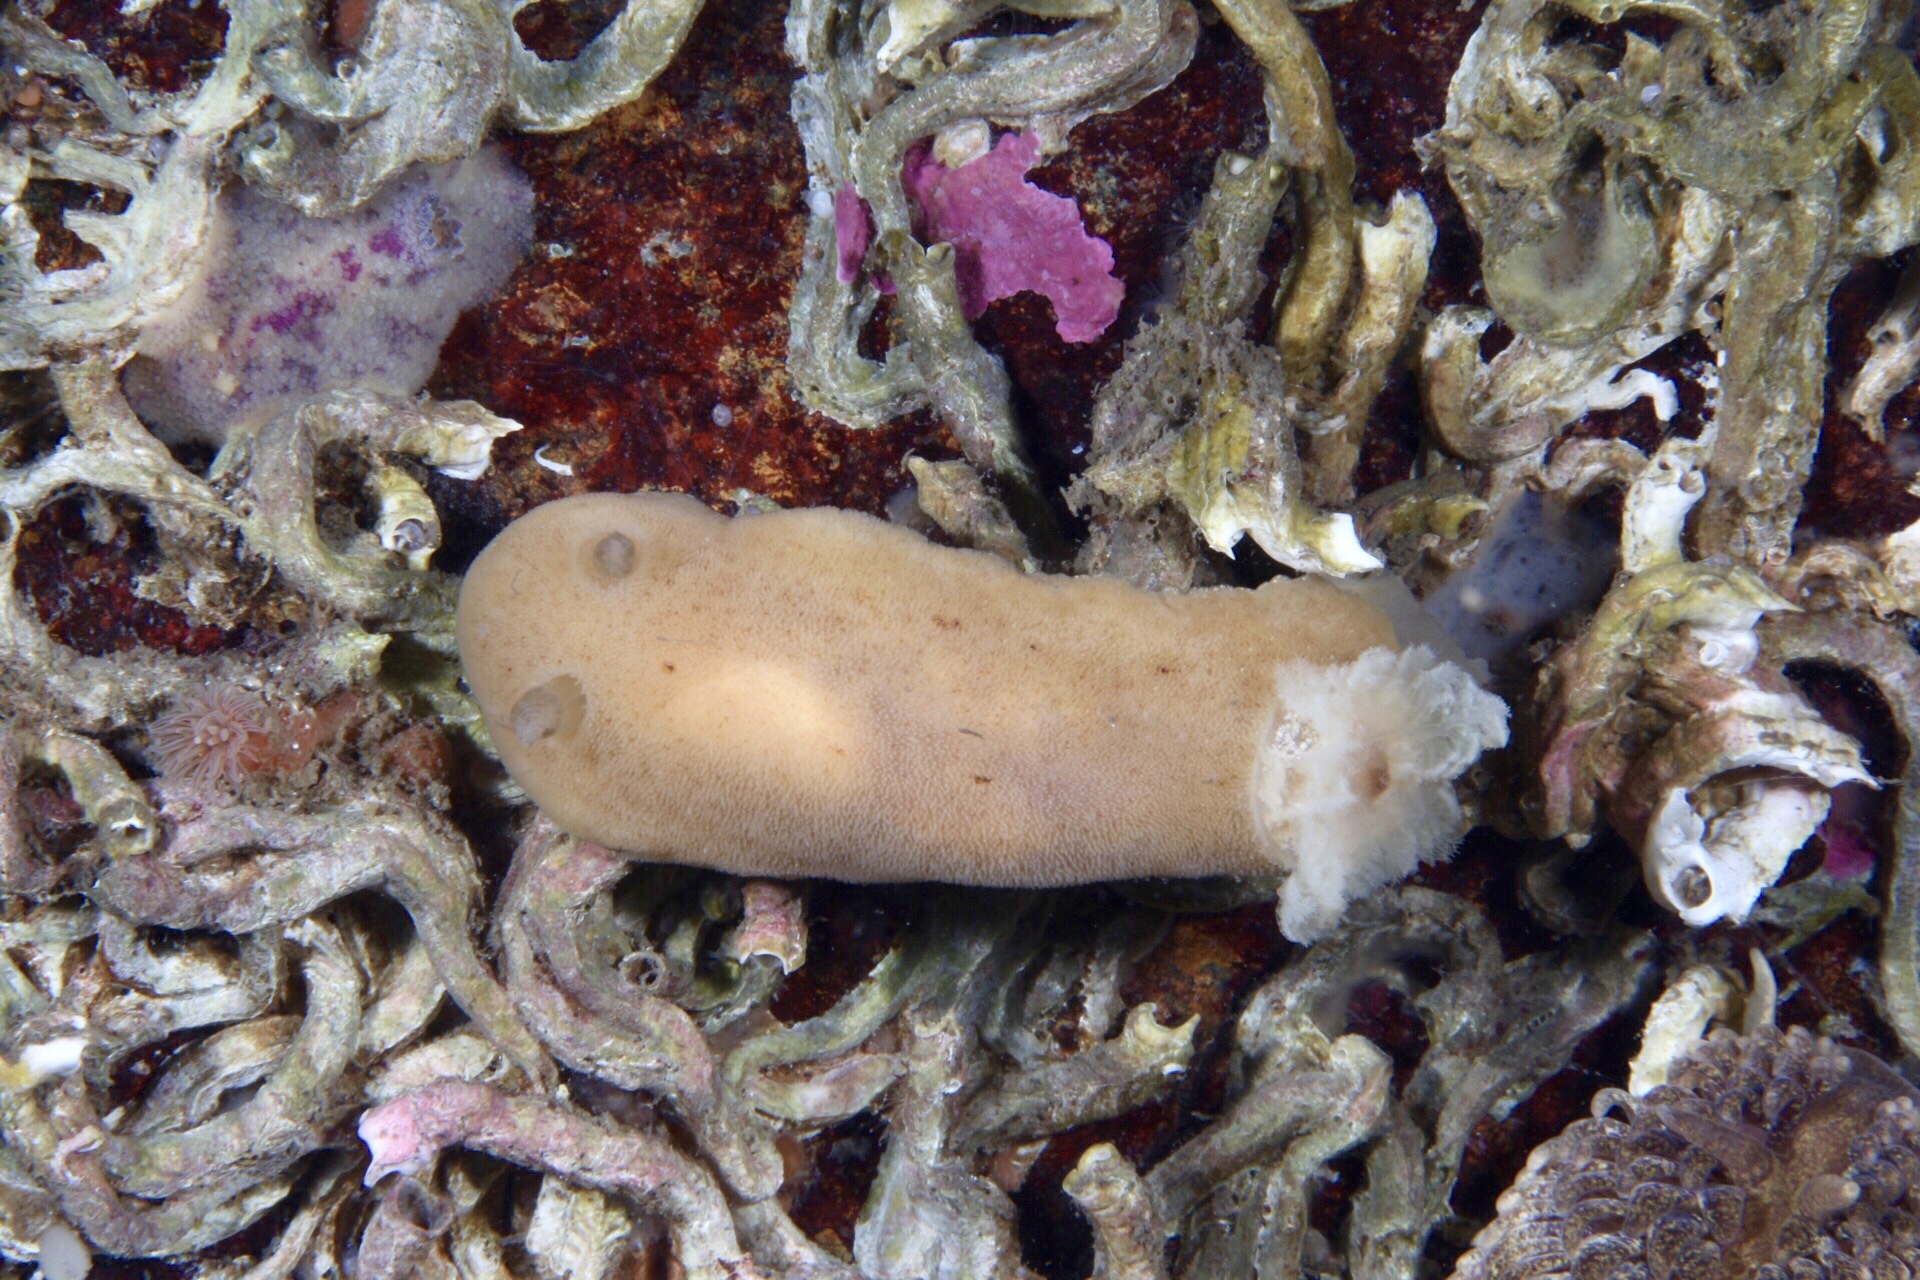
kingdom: Animalia
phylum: Mollusca
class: Gastropoda
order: Nudibranchia
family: Discodorididae
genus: Jorunna
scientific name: Jorunna tomentosa
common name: Grey sea slug
